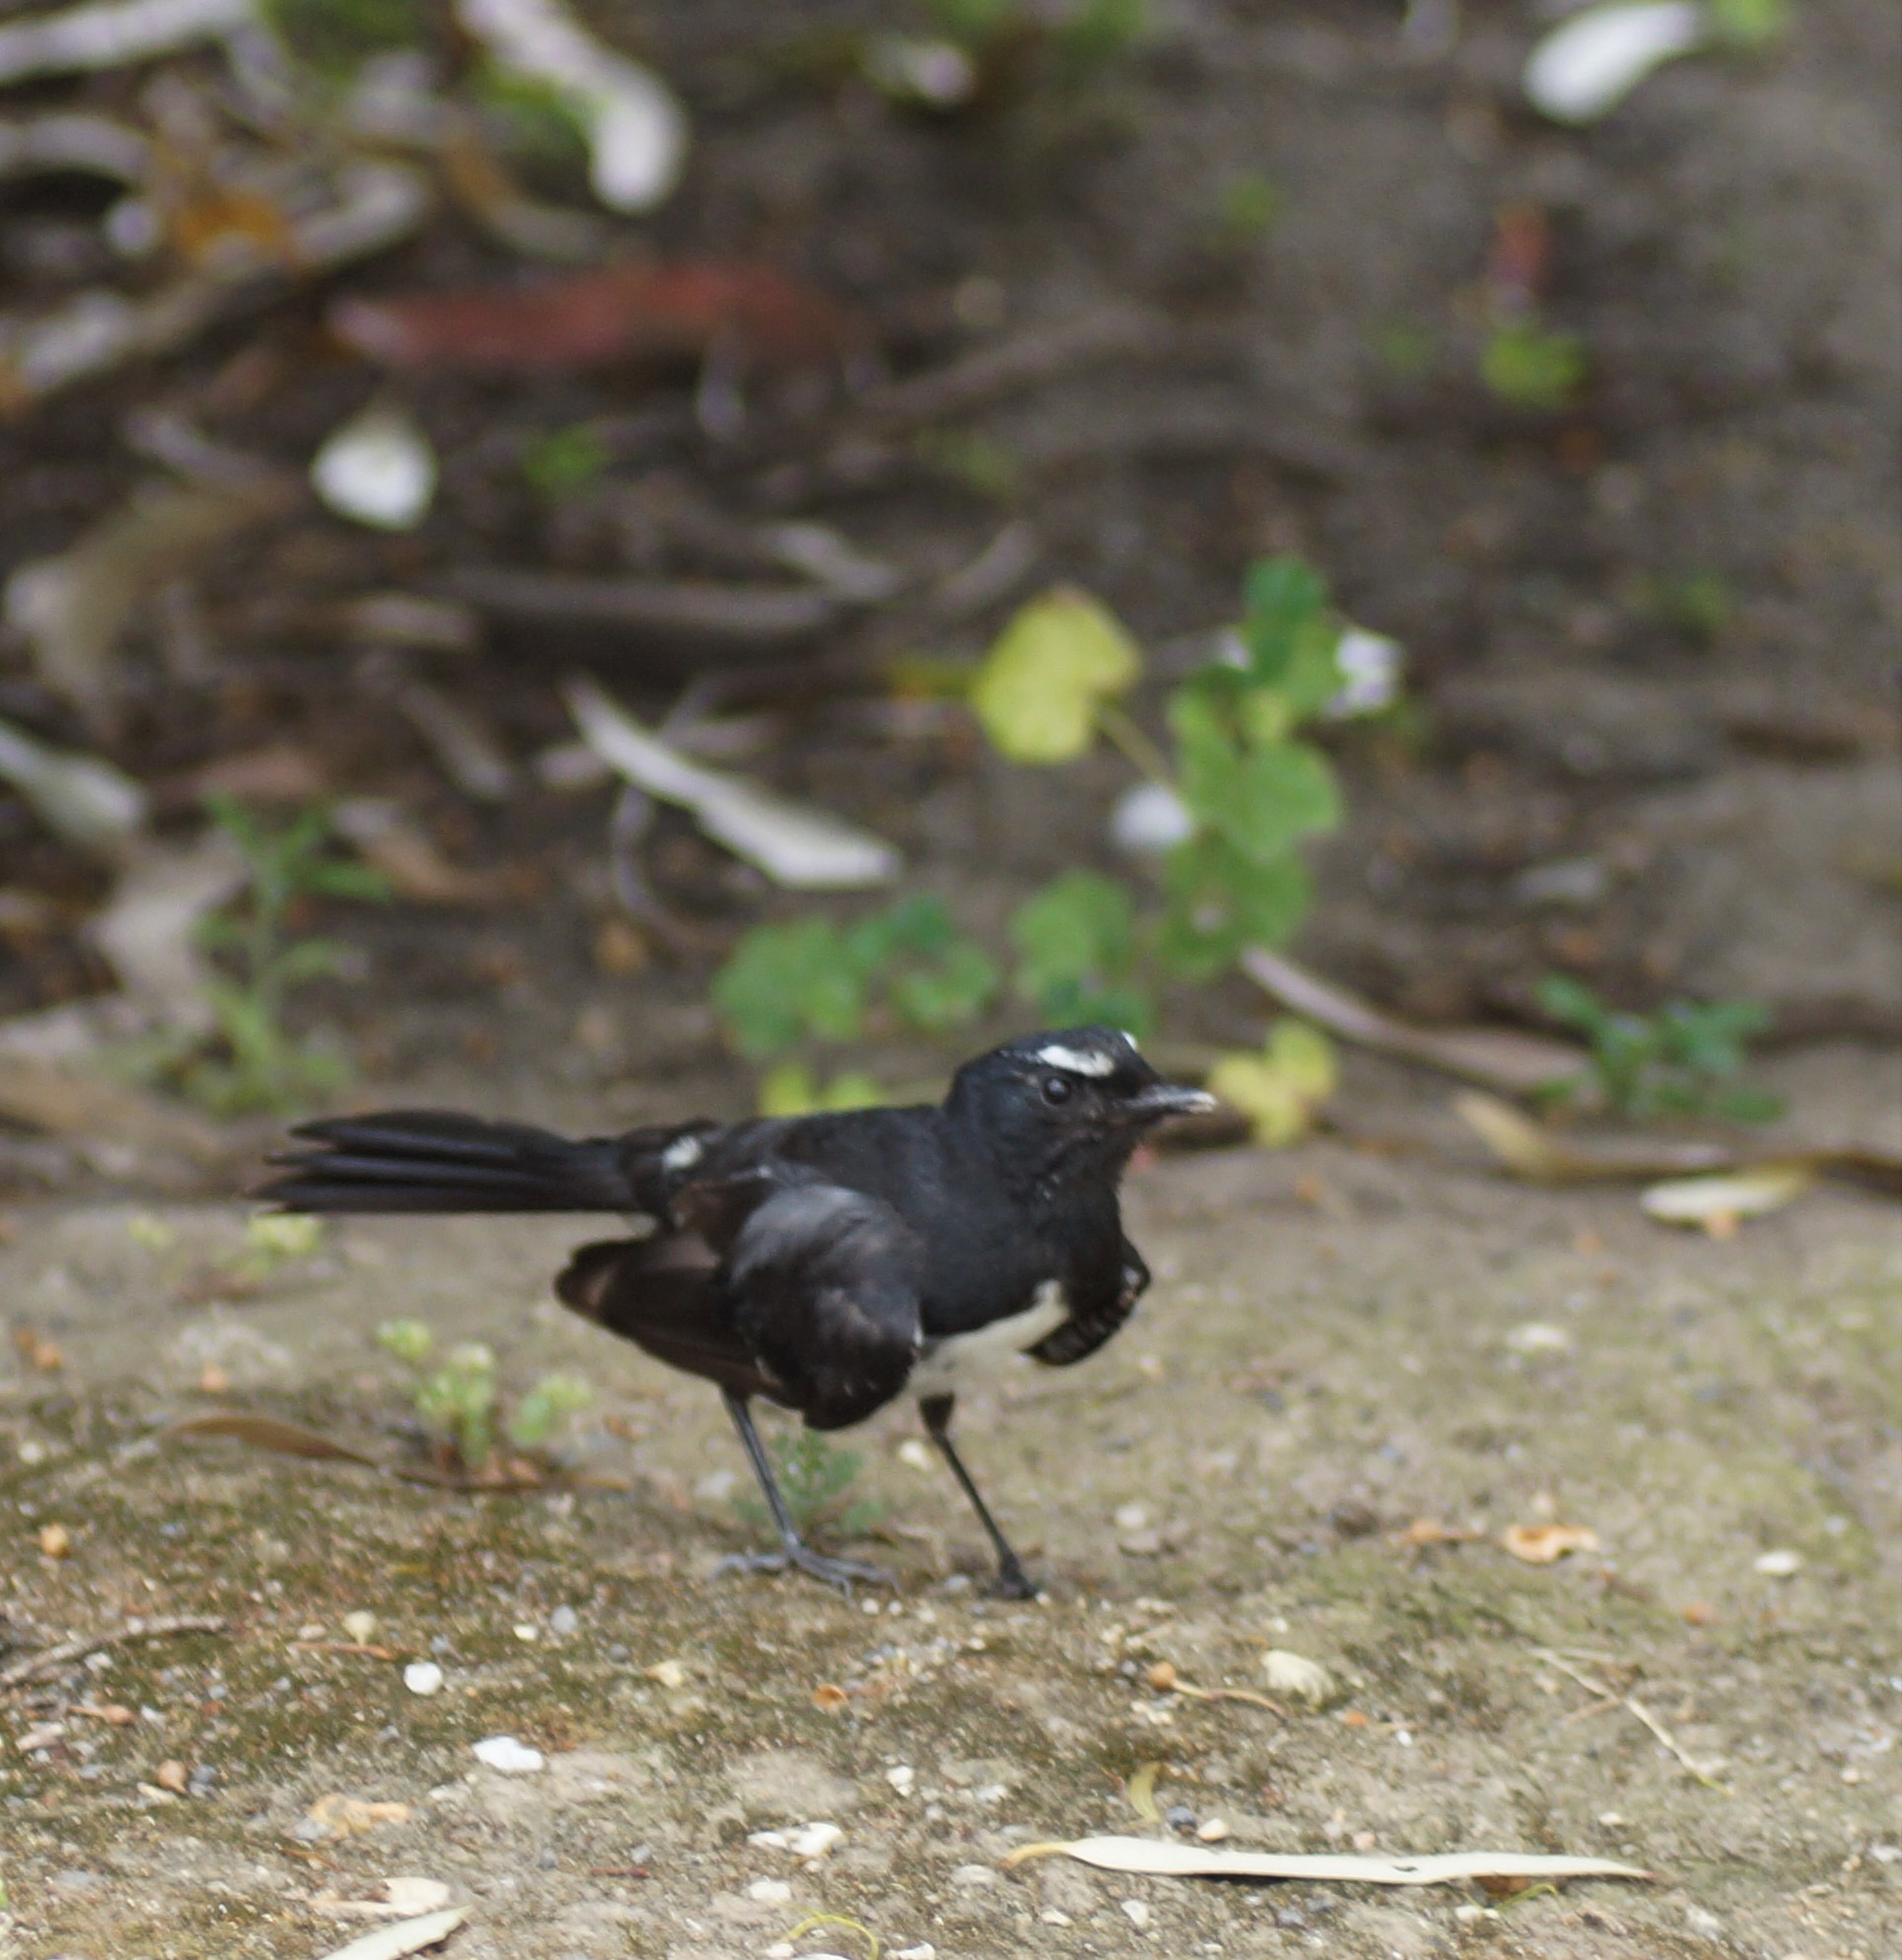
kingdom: Animalia
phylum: Chordata
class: Aves
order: Passeriformes
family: Rhipiduridae
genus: Rhipidura
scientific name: Rhipidura leucophrys
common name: Willie wagtail
